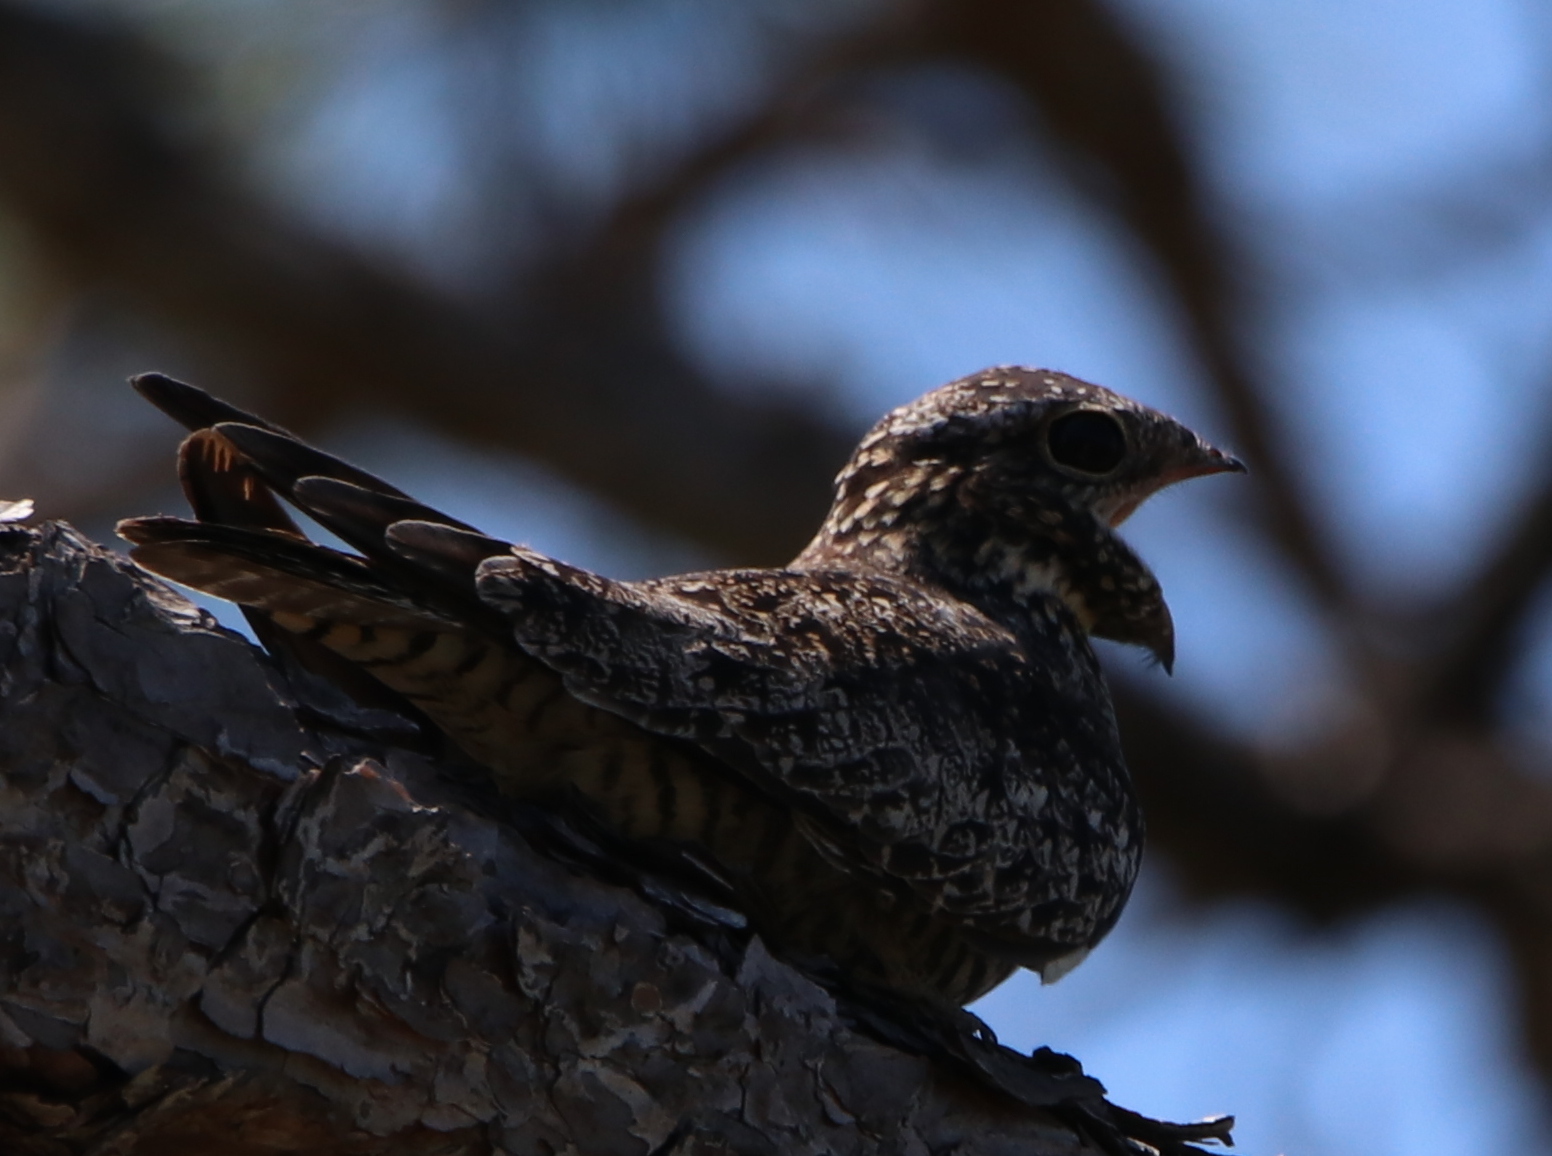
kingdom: Animalia
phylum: Chordata
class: Aves
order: Caprimulgiformes
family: Caprimulgidae
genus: Chordeiles
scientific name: Chordeiles minor
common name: Common nighthawk
